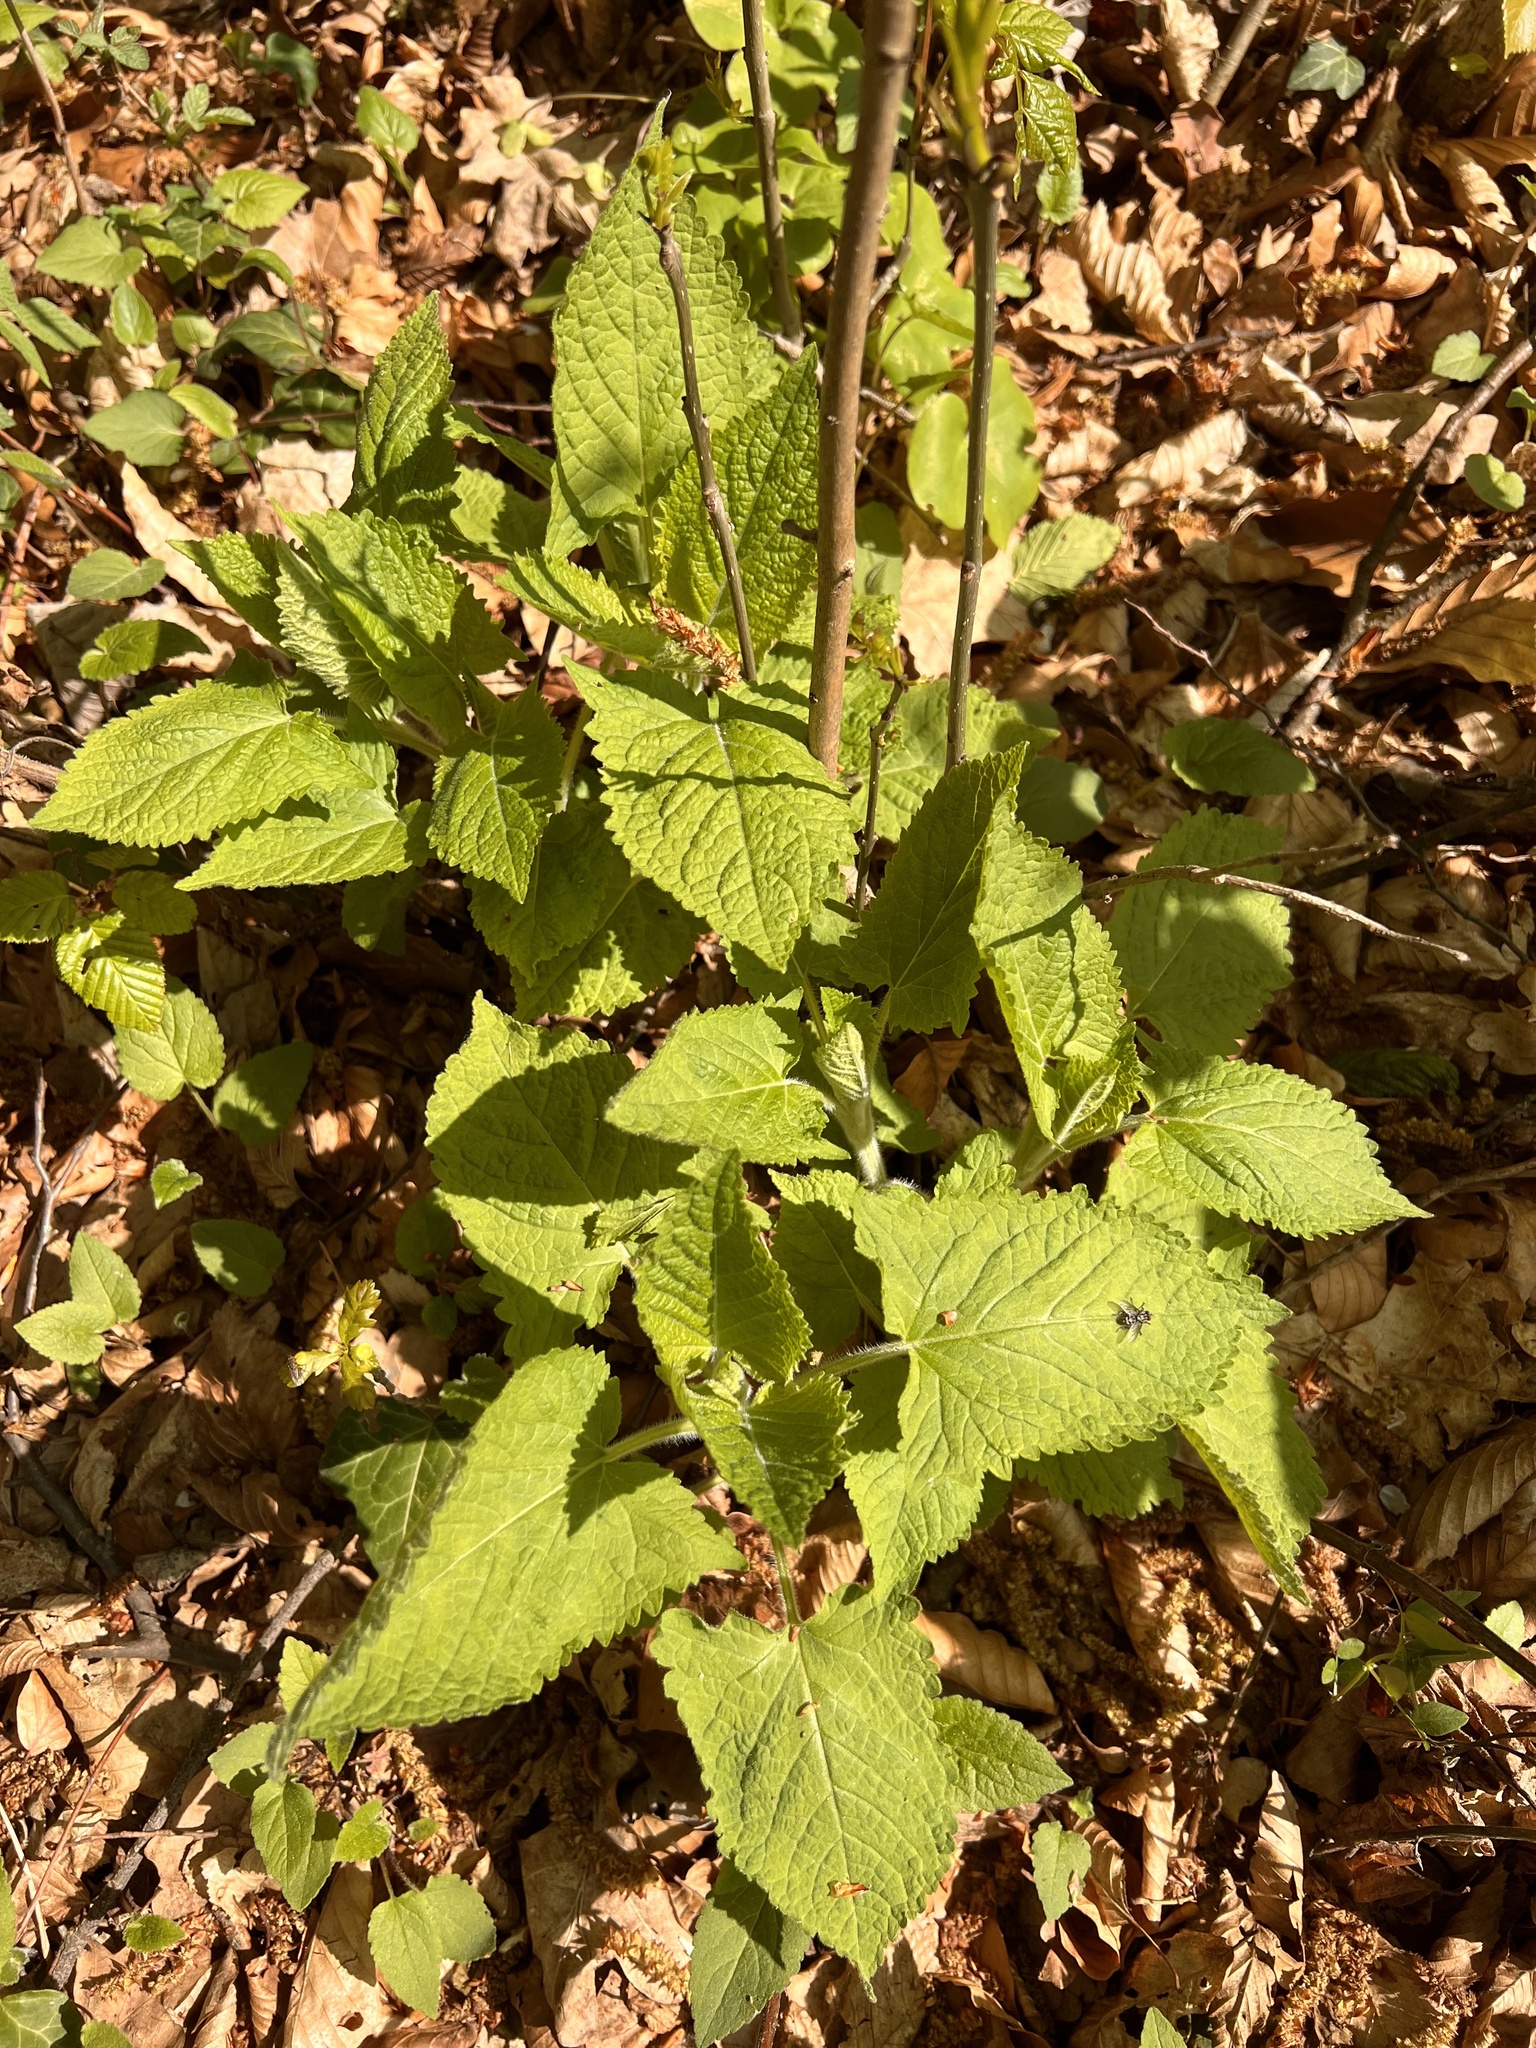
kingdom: Plantae
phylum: Tracheophyta
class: Magnoliopsida
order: Lamiales
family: Lamiaceae
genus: Salvia
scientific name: Salvia glutinosa
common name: Sticky clary
